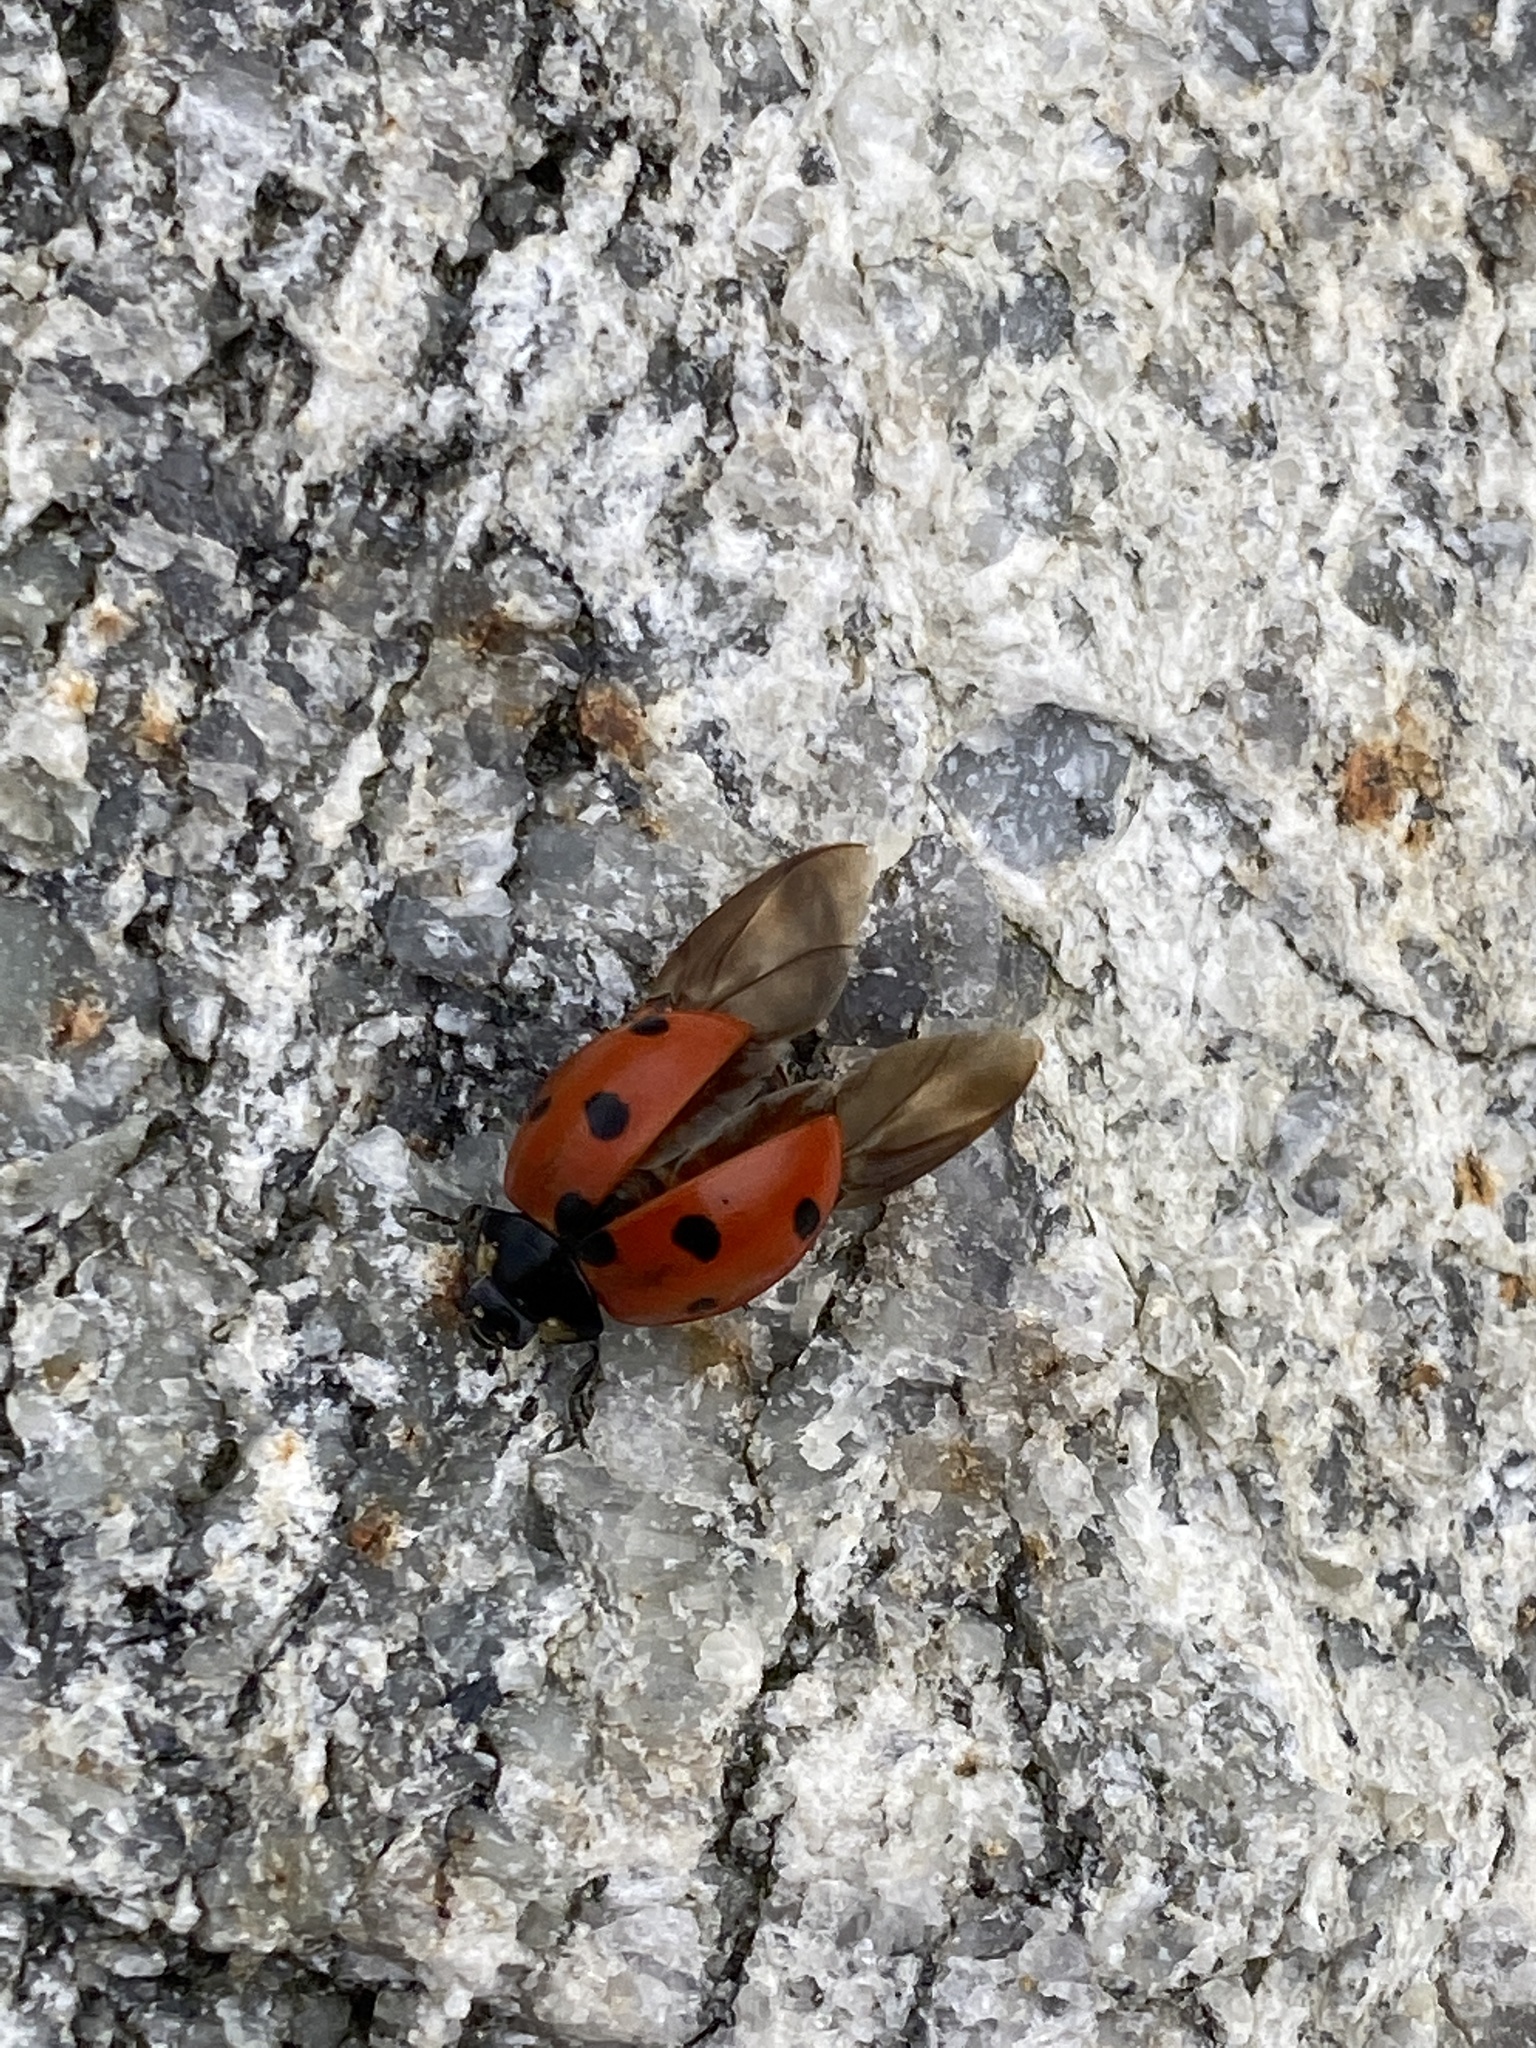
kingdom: Animalia
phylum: Arthropoda
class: Insecta
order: Coleoptera
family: Coccinellidae
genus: Coccinella
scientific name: Coccinella septempunctata
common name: Sevenspotted lady beetle
